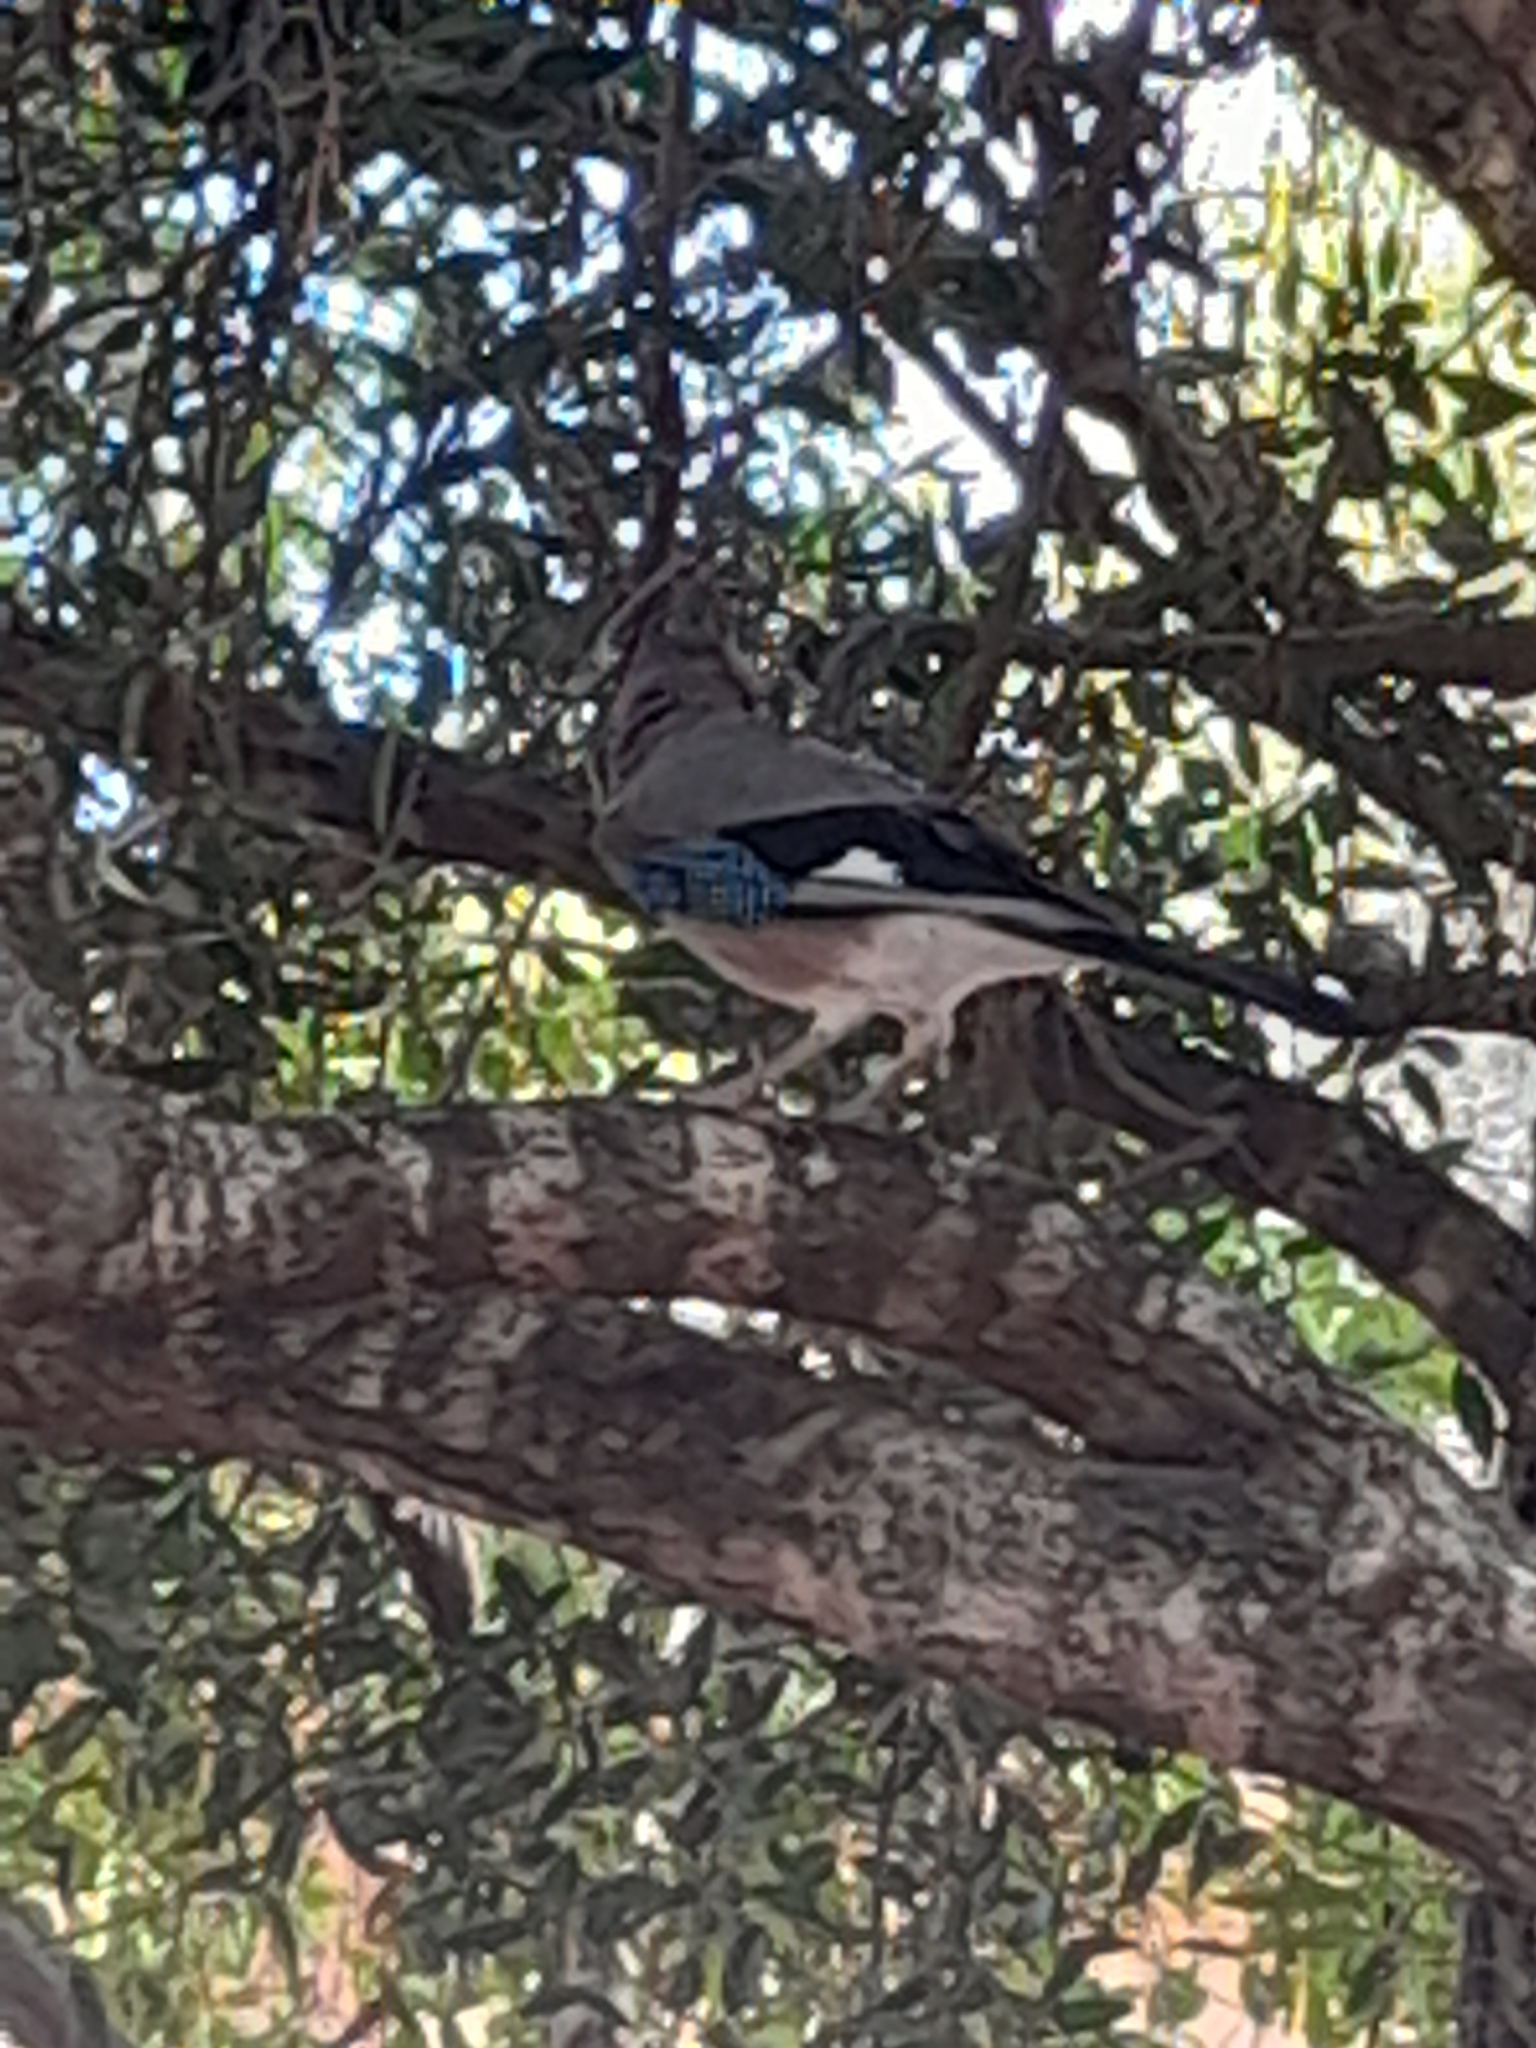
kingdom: Animalia
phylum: Chordata
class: Aves
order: Passeriformes
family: Corvidae
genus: Garrulus
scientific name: Garrulus glandarius
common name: Eurasian jay
